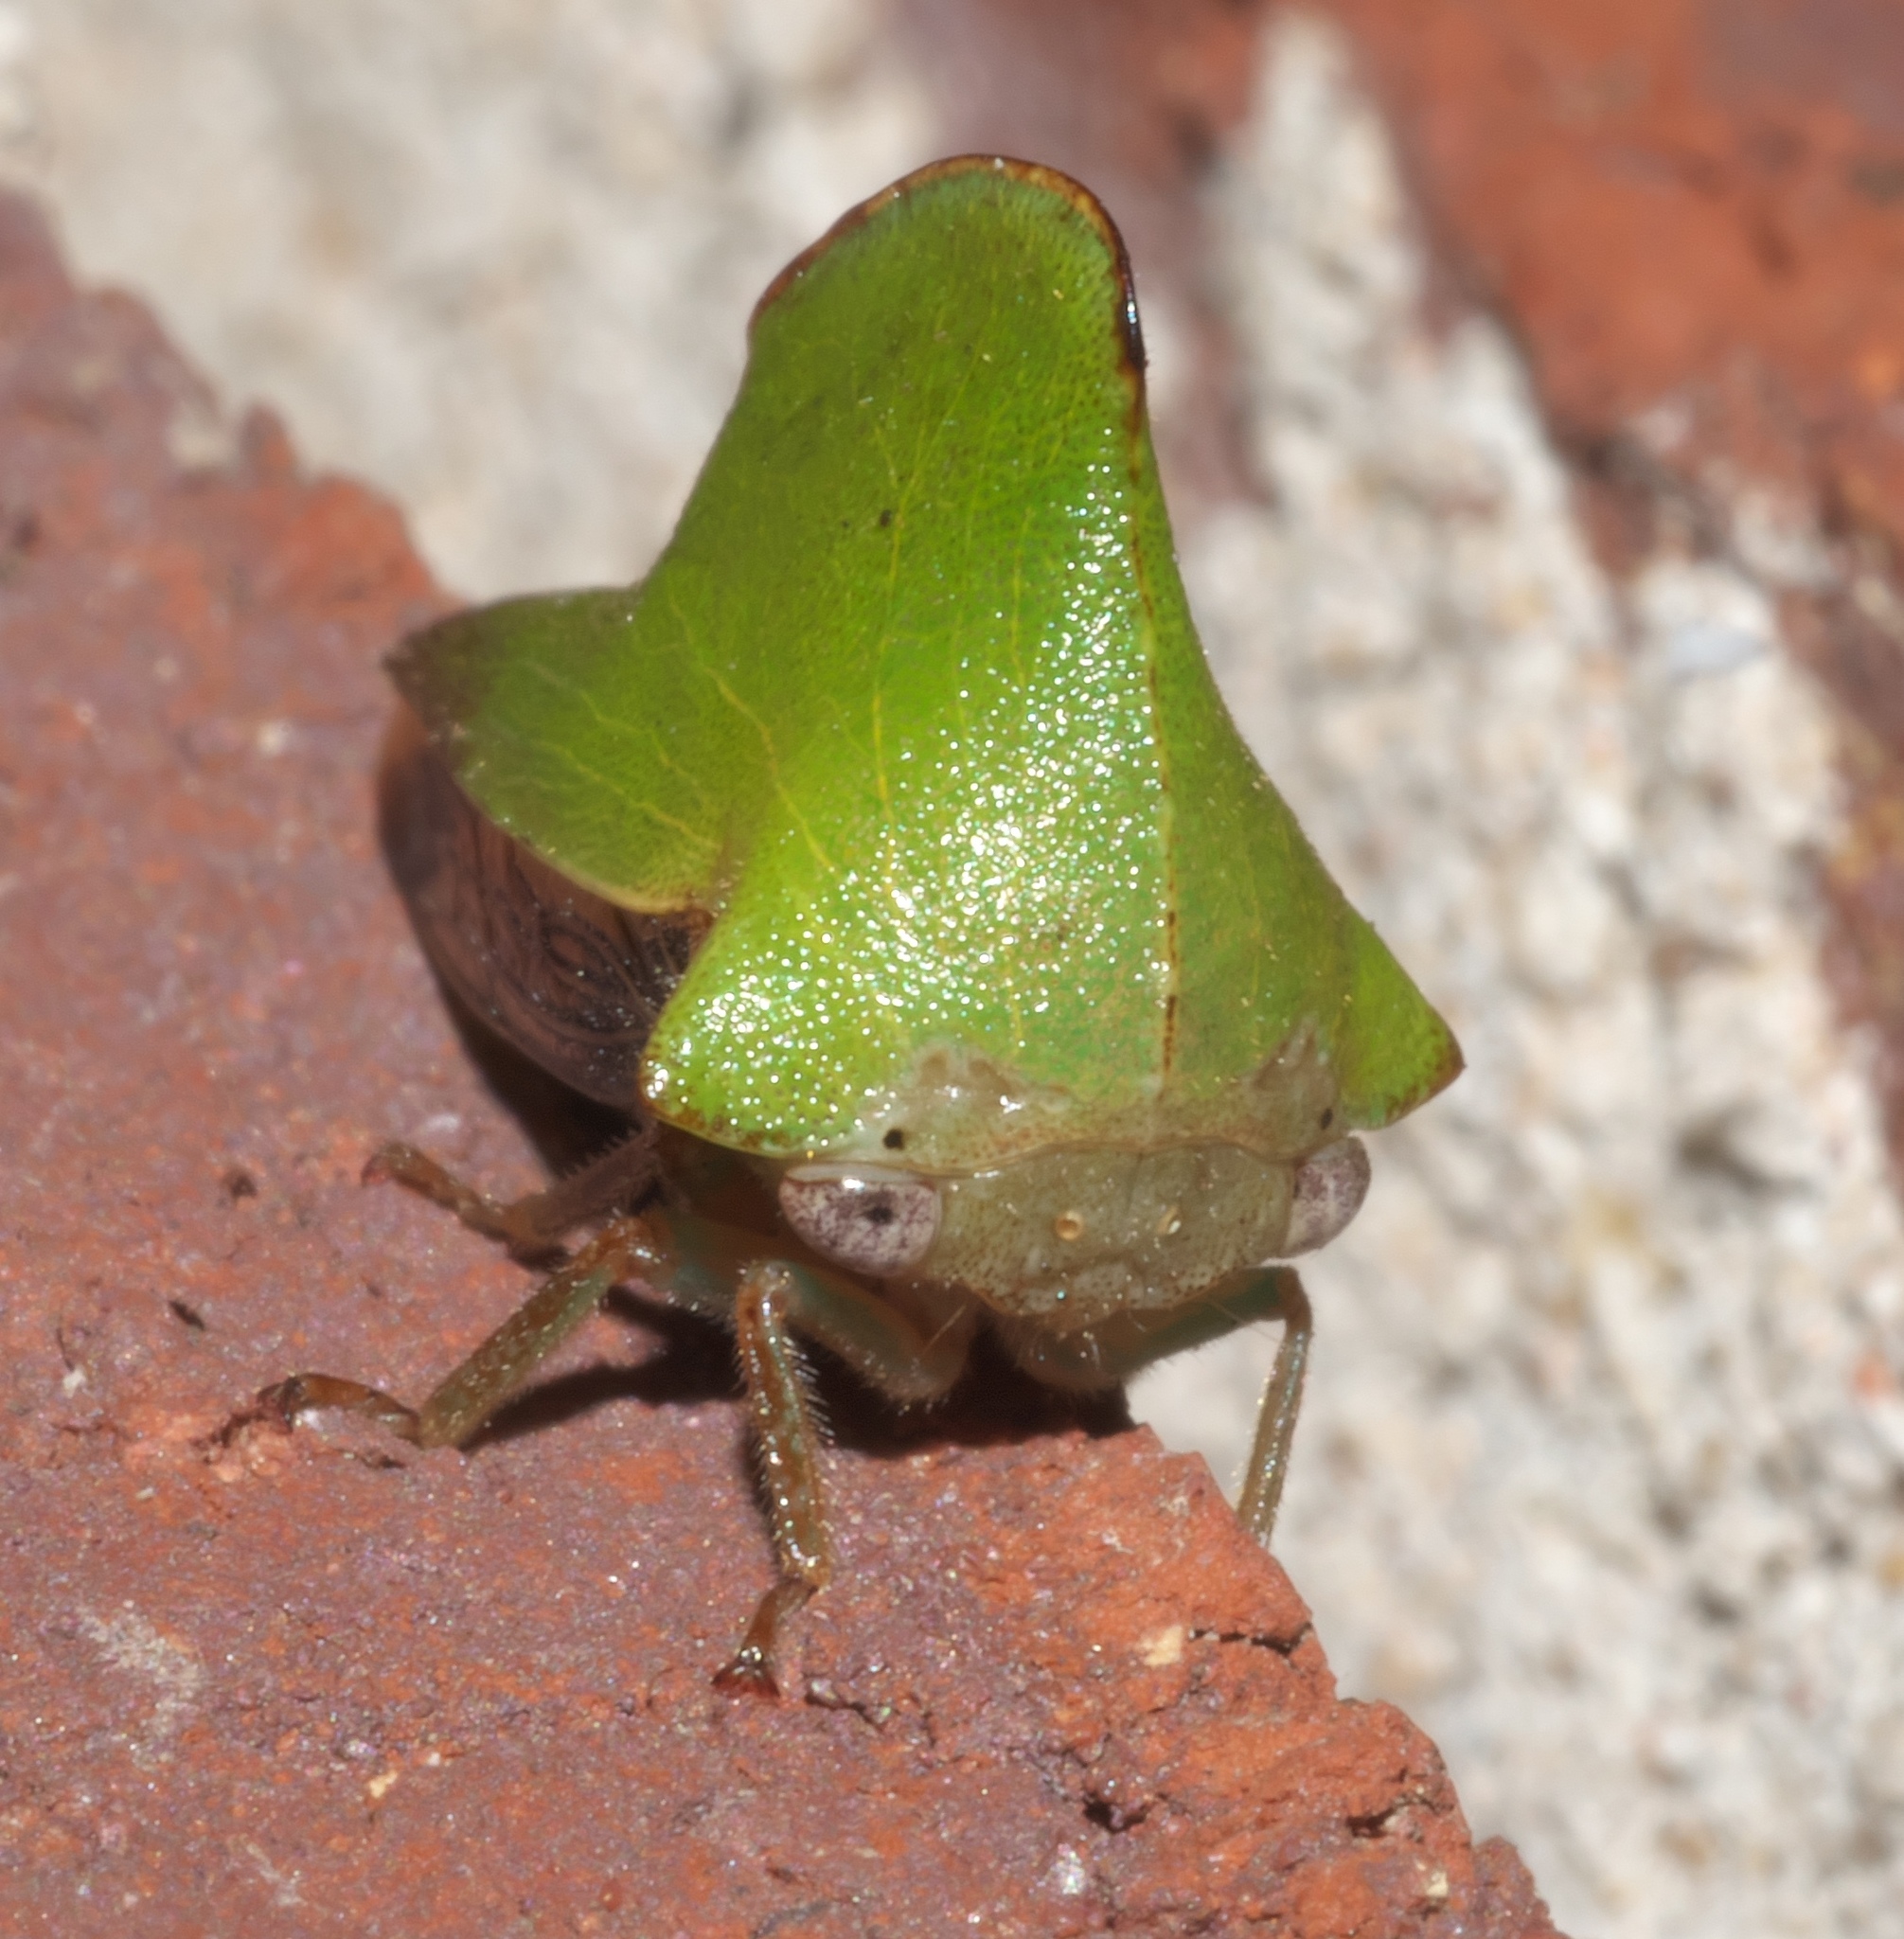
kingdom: Animalia
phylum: Arthropoda
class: Insecta
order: Hemiptera
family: Membracidae
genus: Helonica
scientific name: Helonica excelsa
